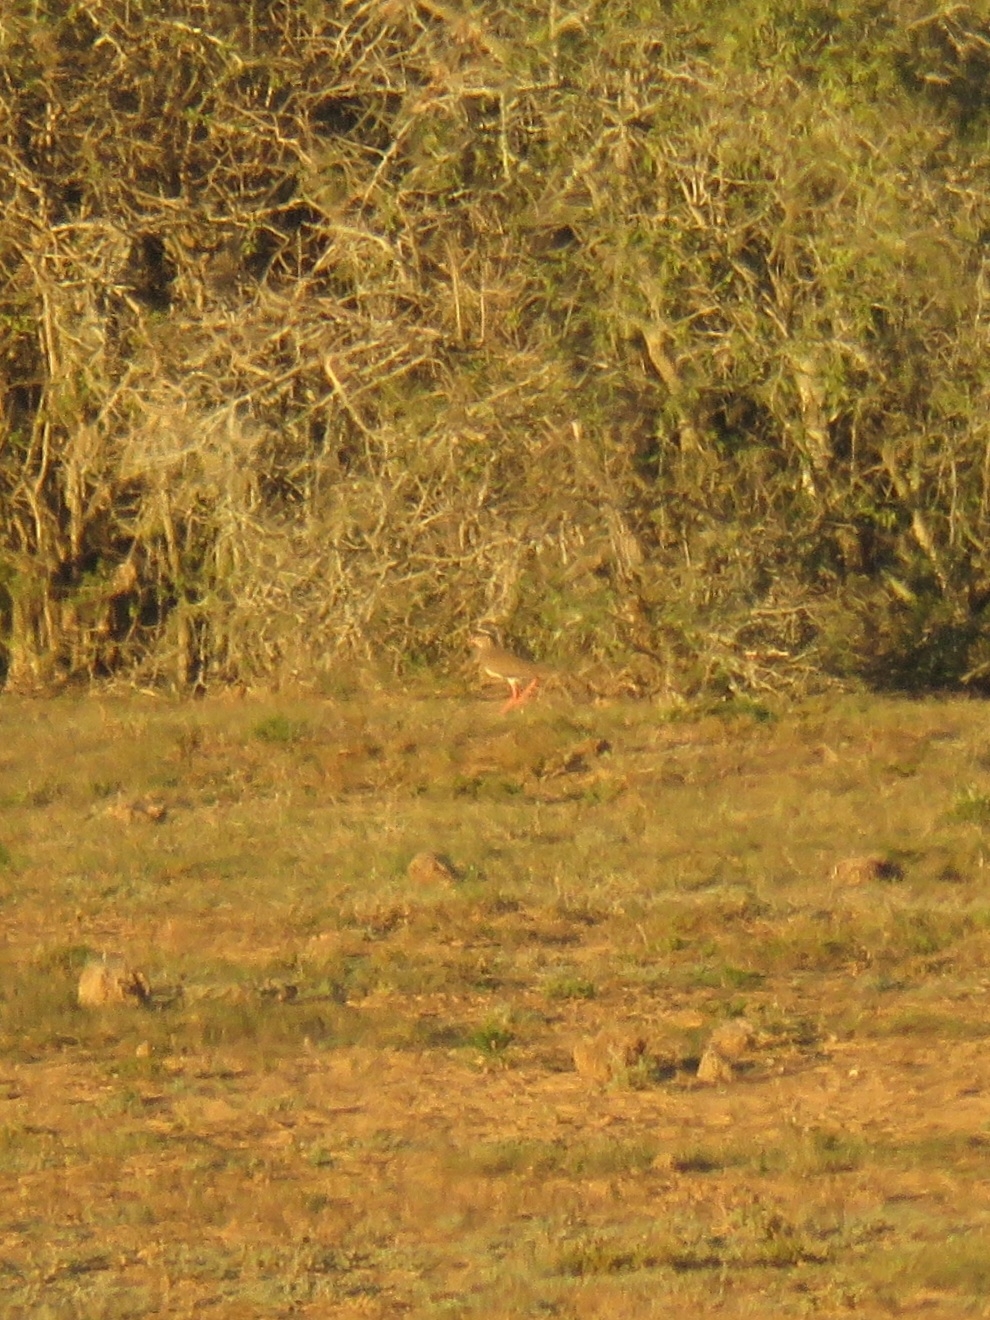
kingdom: Animalia
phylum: Chordata
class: Aves
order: Charadriiformes
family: Charadriidae
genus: Vanellus
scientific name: Vanellus coronatus
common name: Crowned lapwing
